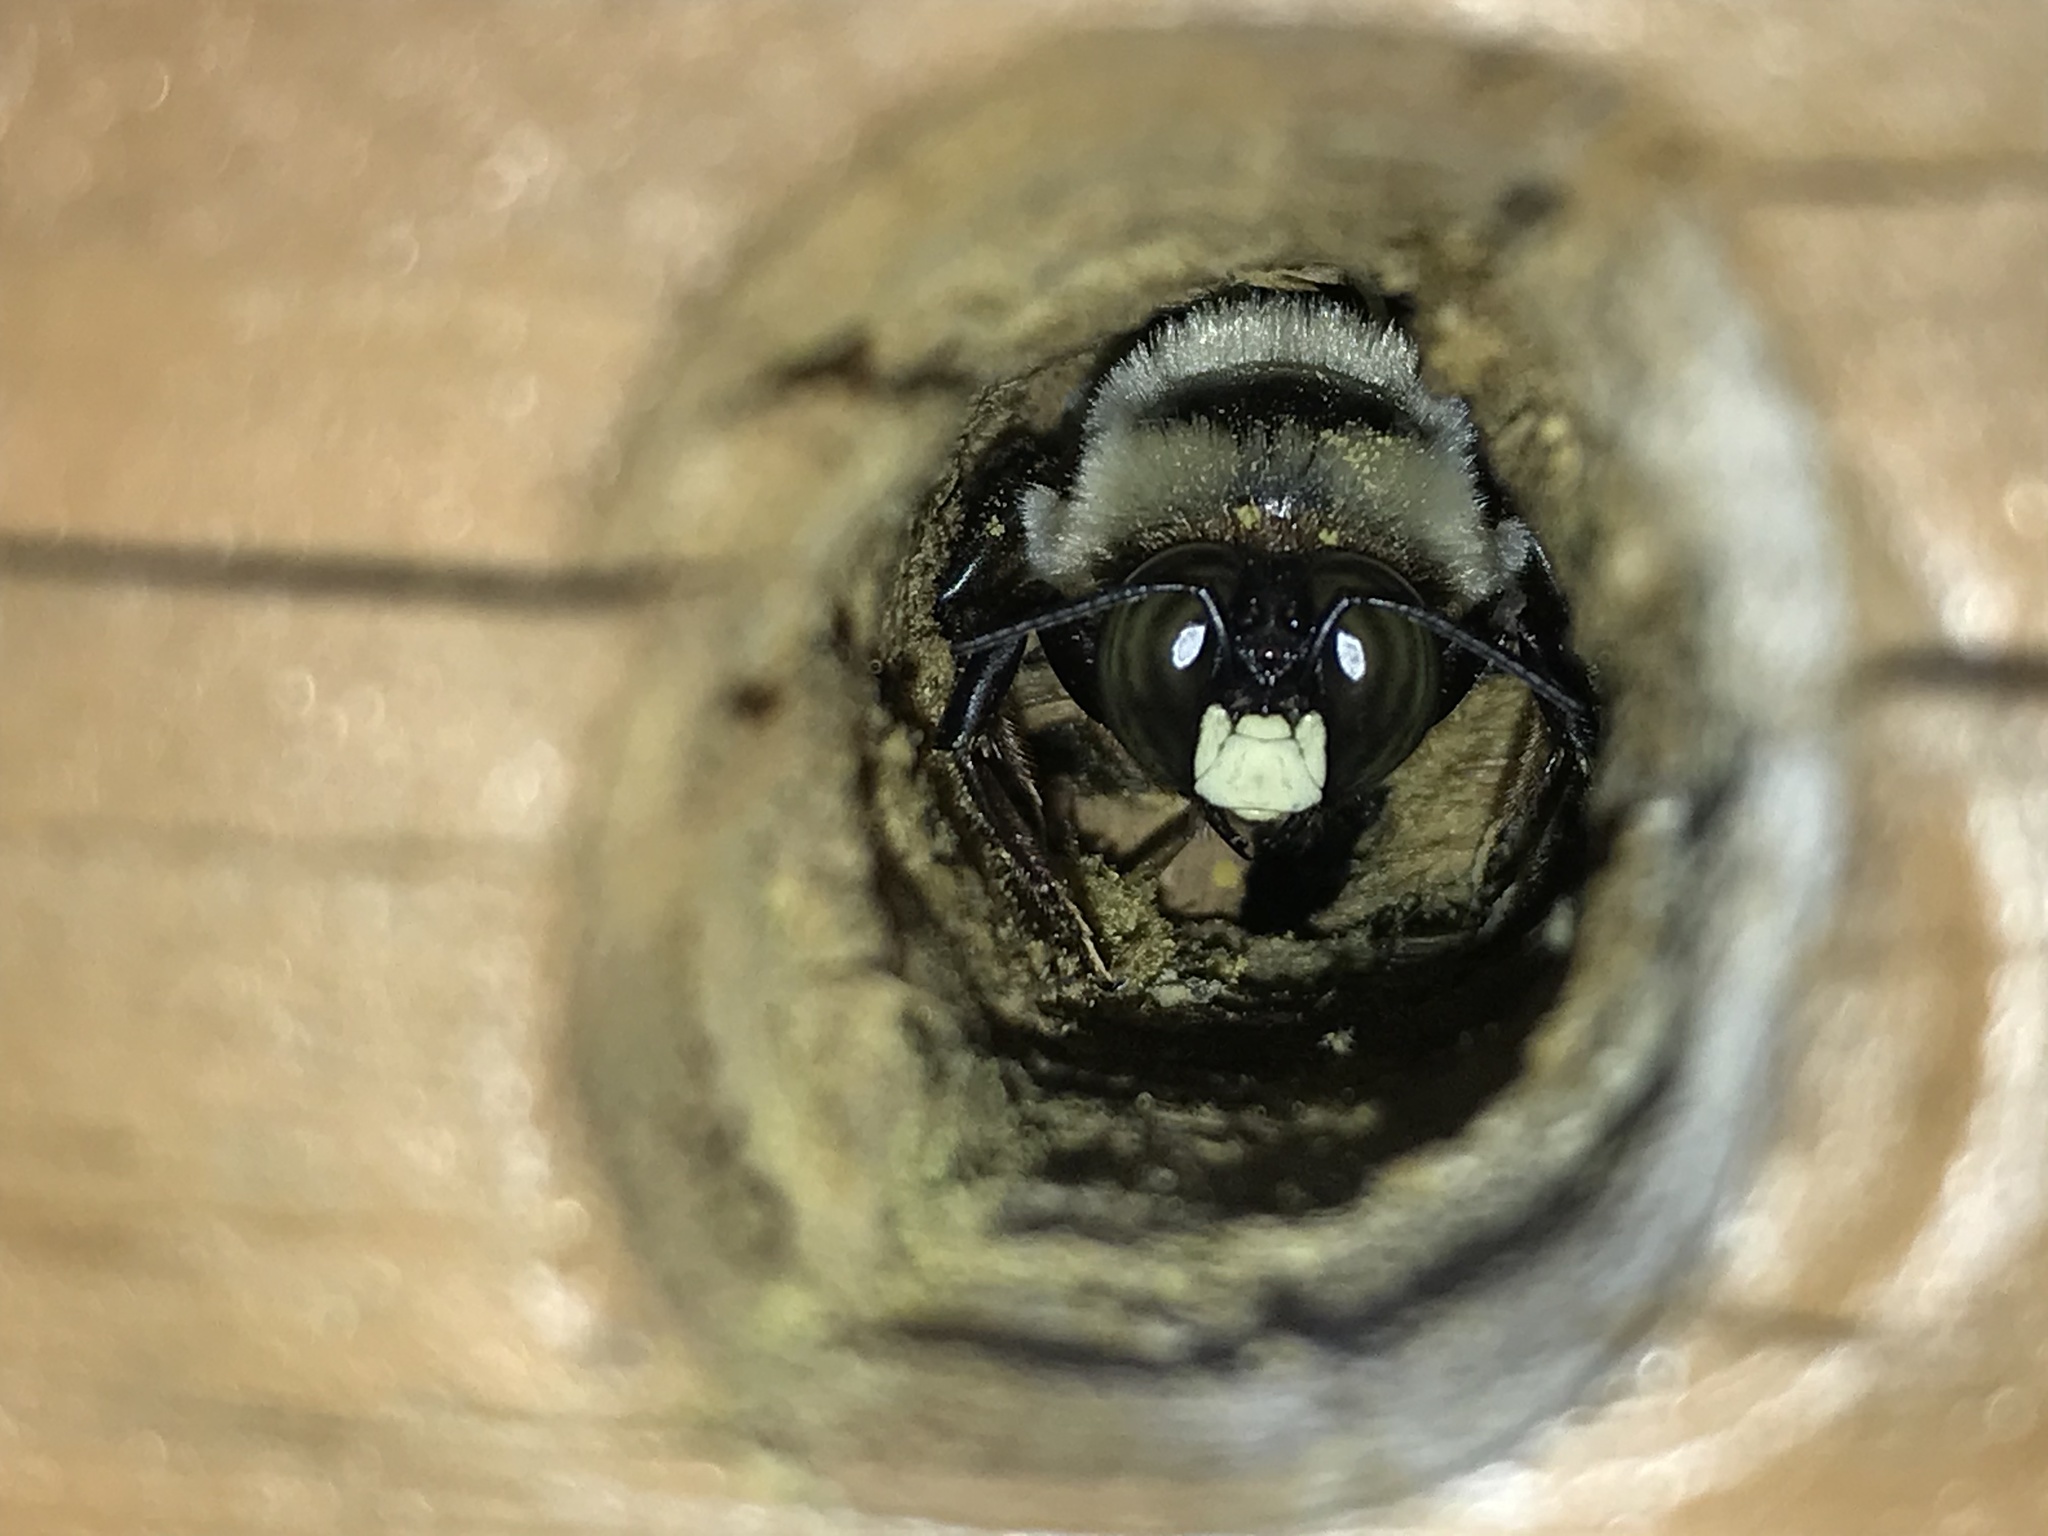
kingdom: Animalia
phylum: Arthropoda
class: Insecta
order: Hymenoptera
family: Apidae
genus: Xylocopa
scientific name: Xylocopa virginica
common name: Carpenter bee
